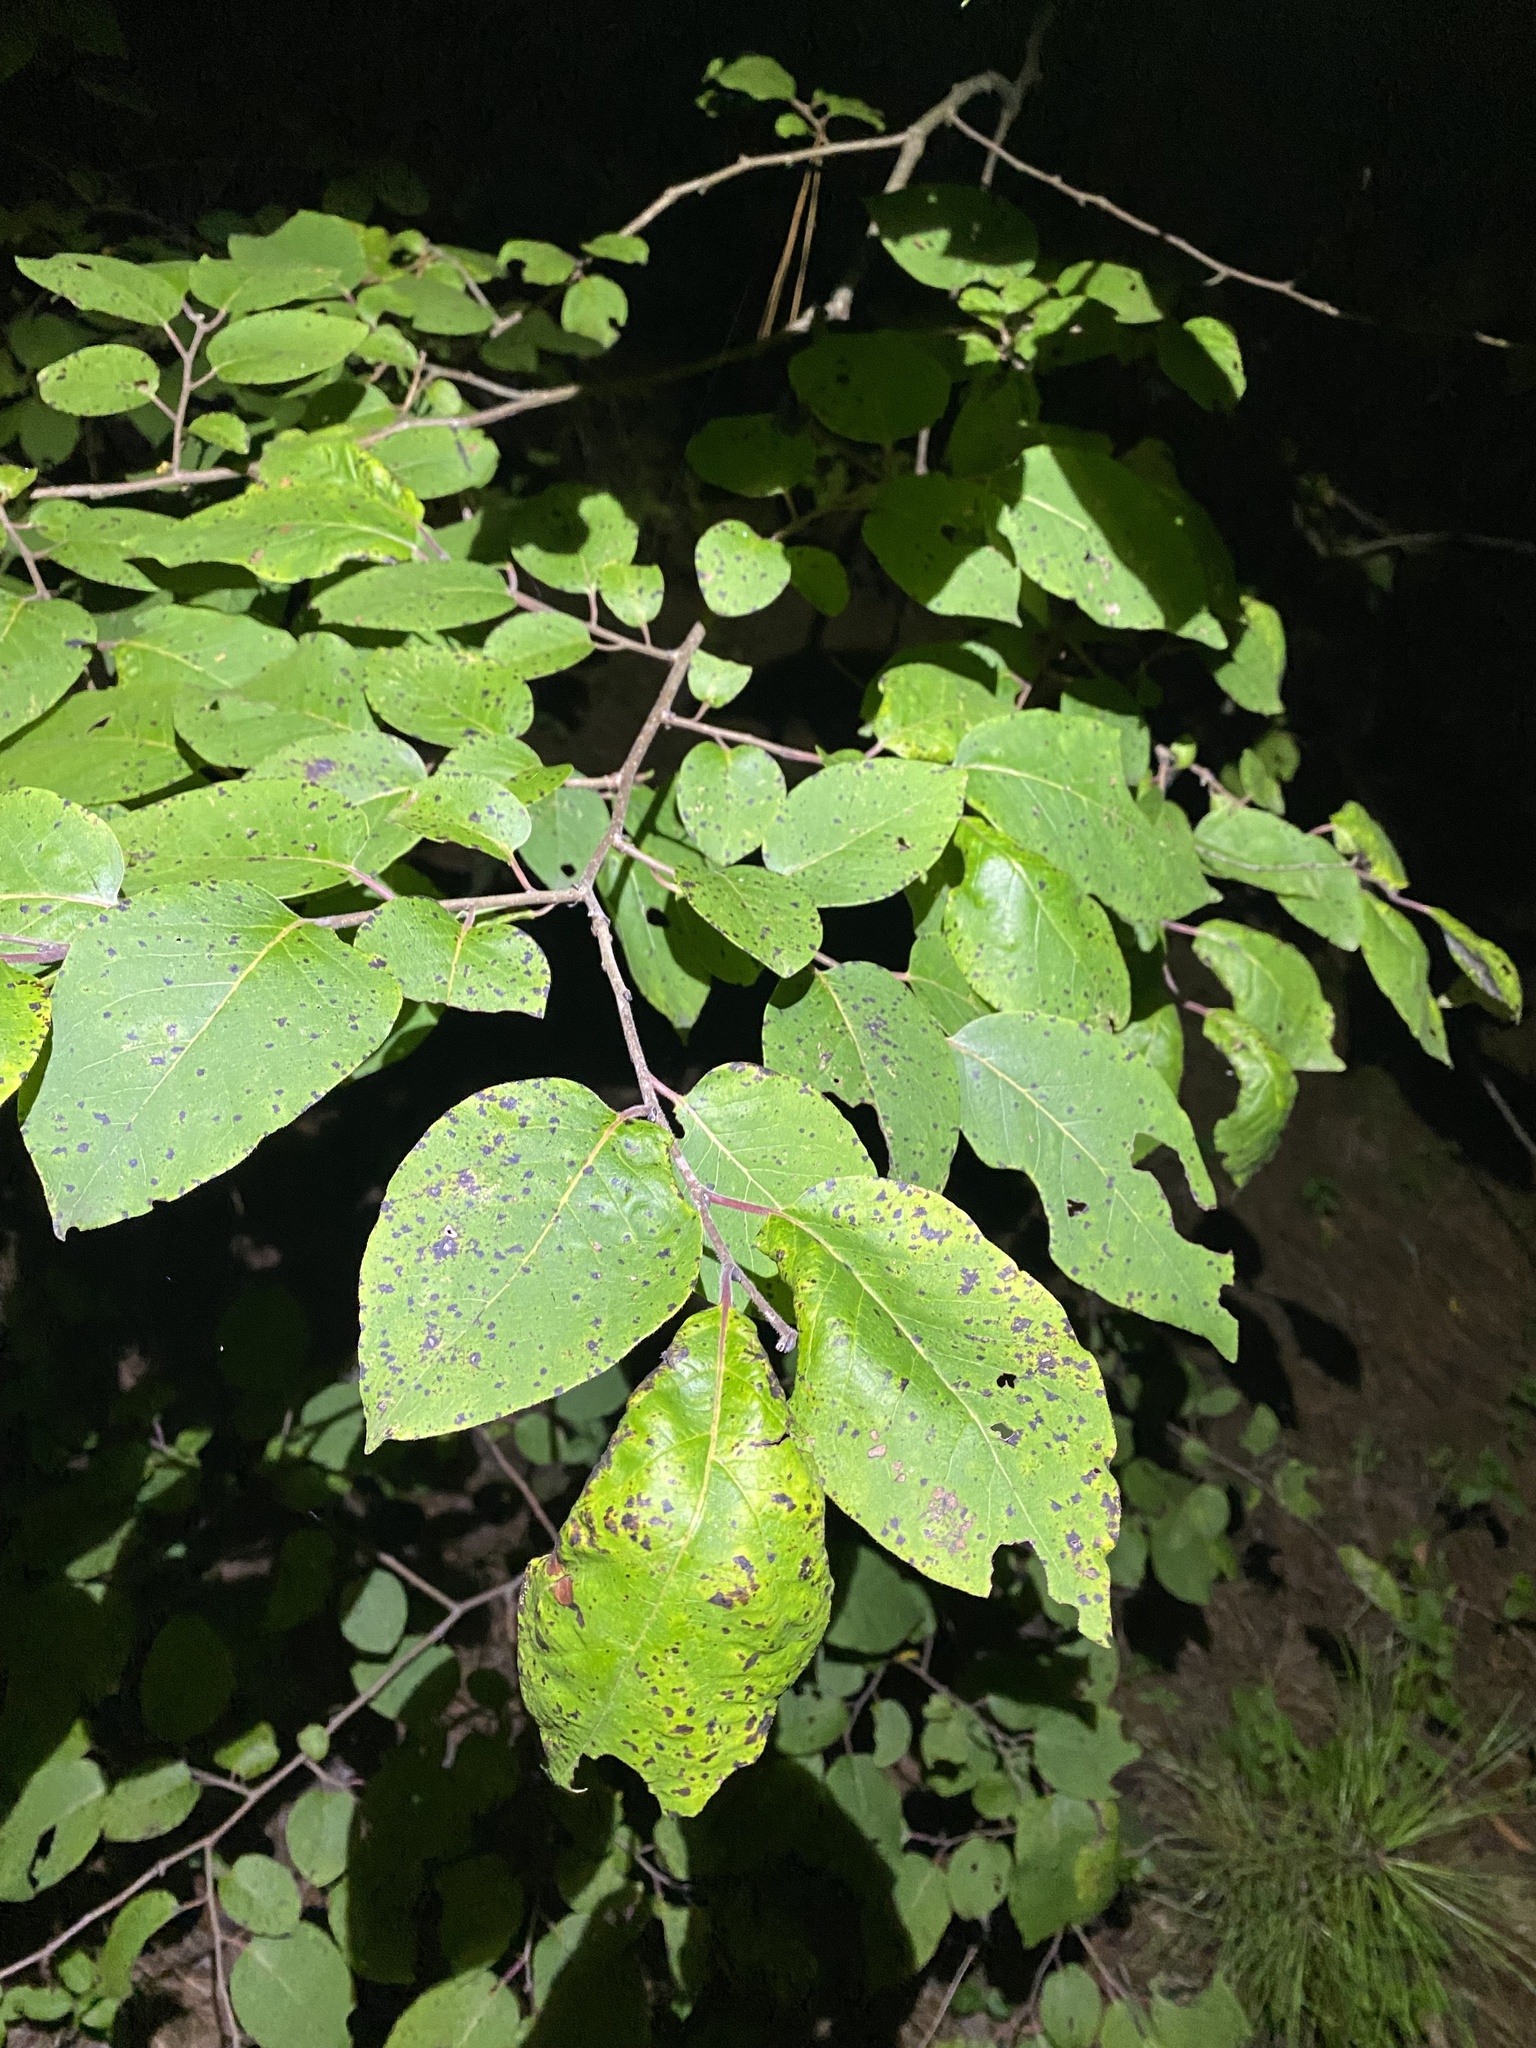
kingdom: Plantae
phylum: Tracheophyta
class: Magnoliopsida
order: Ericales
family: Ebenaceae
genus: Diospyros
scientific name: Diospyros virginiana
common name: Persimmon
